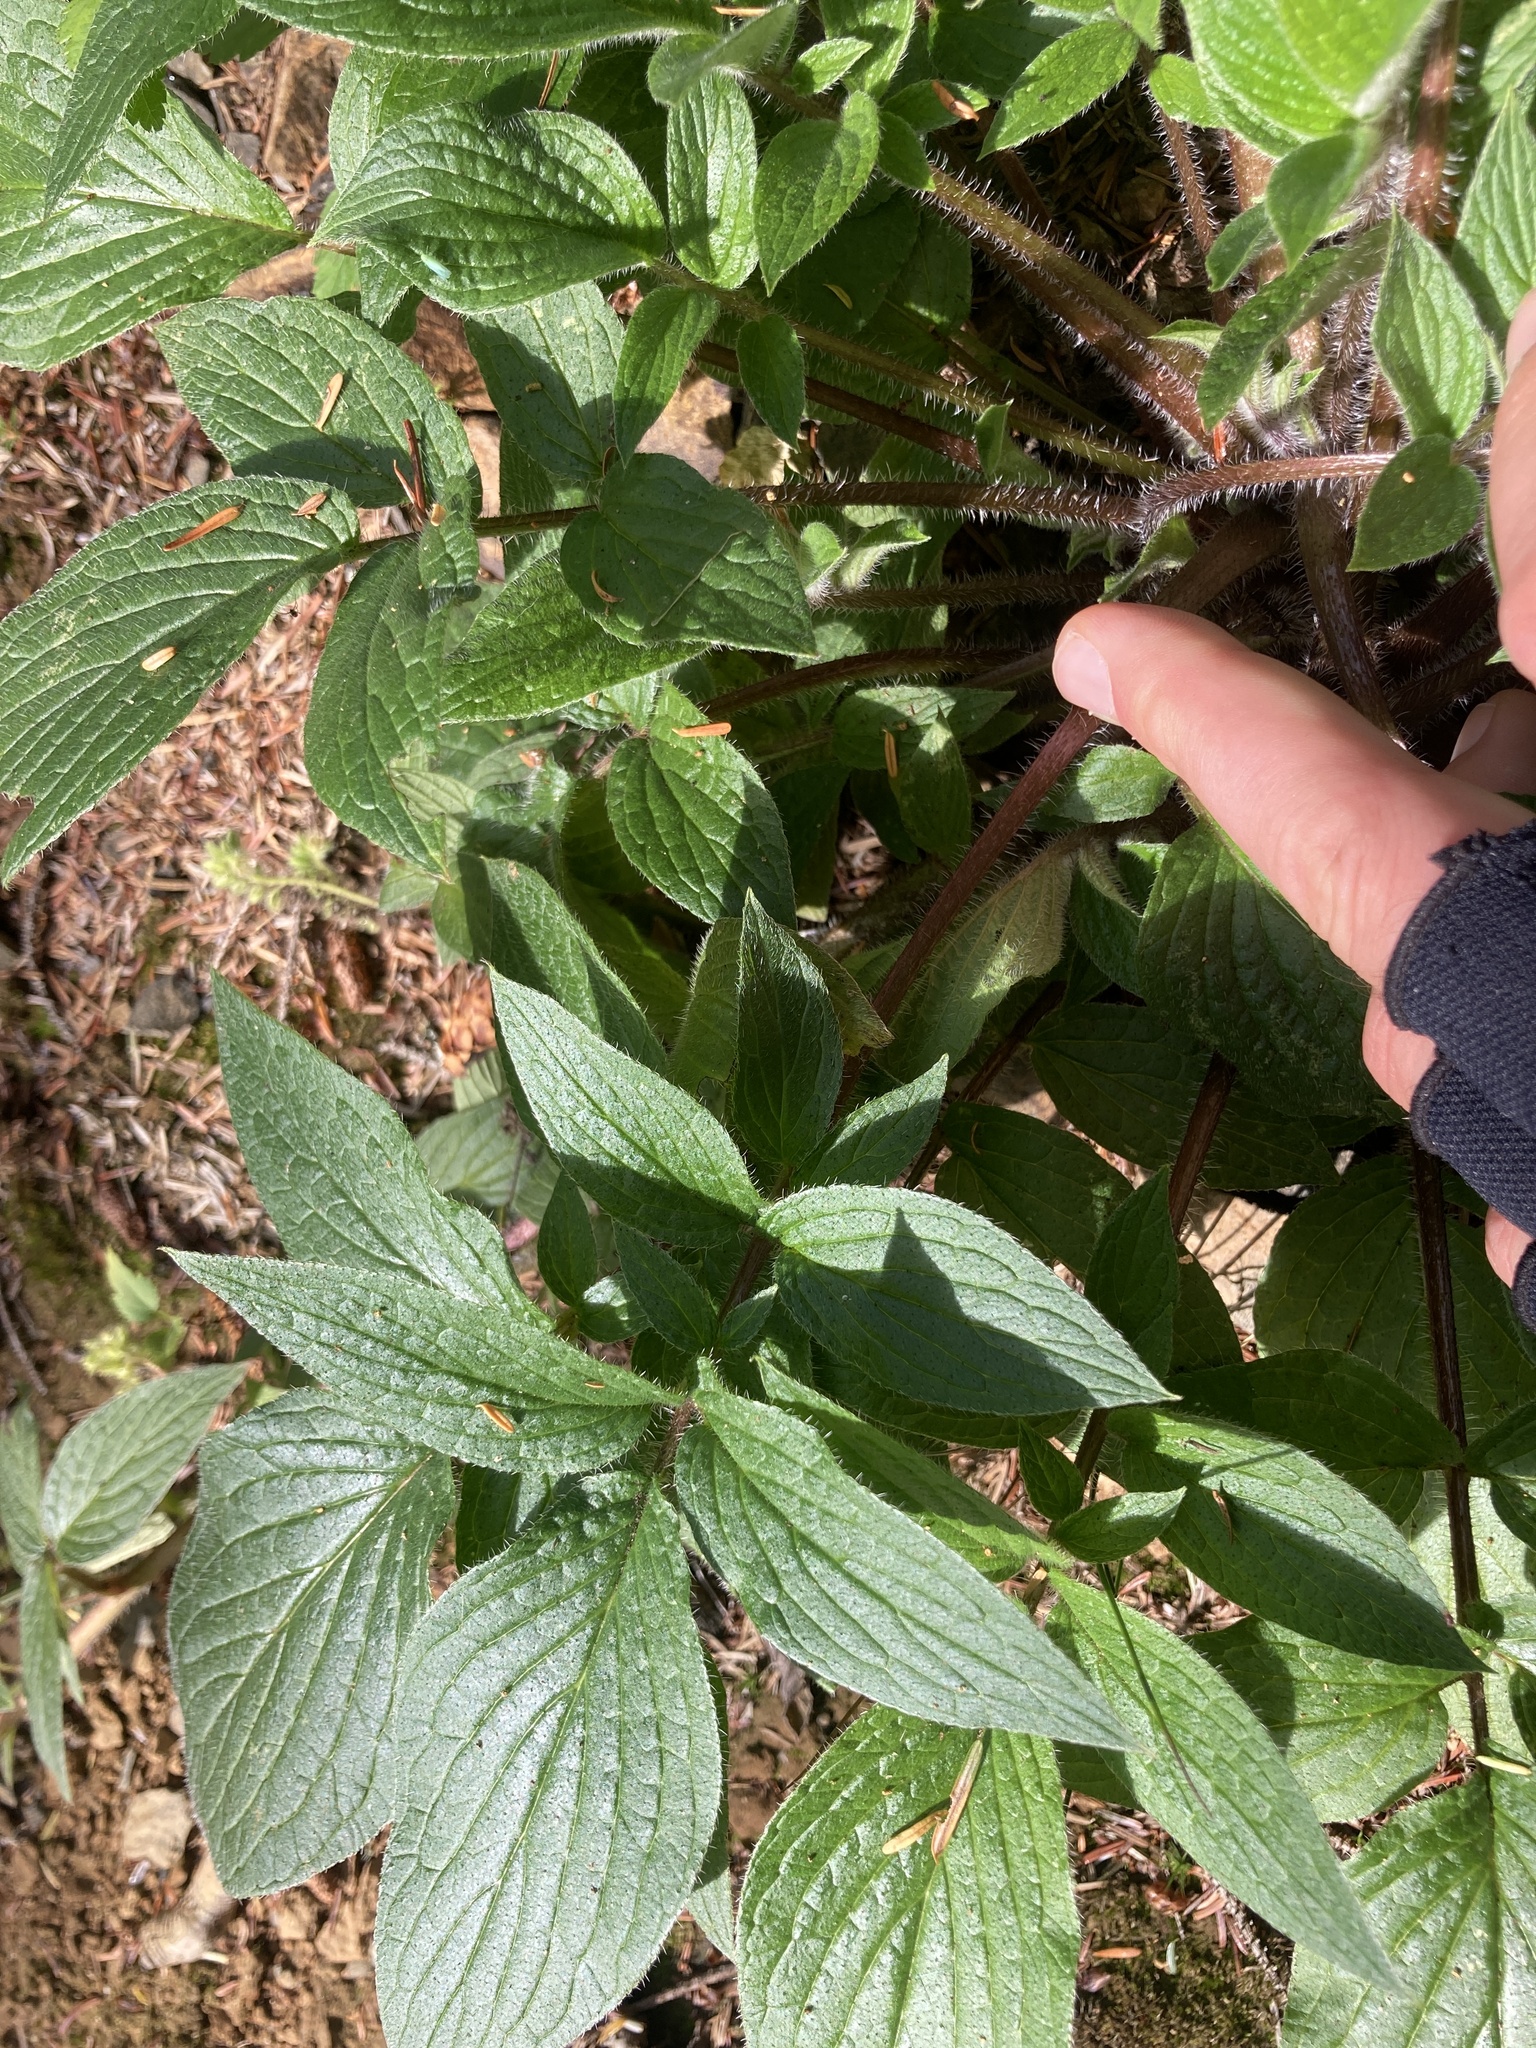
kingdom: Plantae
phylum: Tracheophyta
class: Magnoliopsida
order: Boraginales
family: Hydrophyllaceae
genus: Phacelia
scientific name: Phacelia nemoralis
